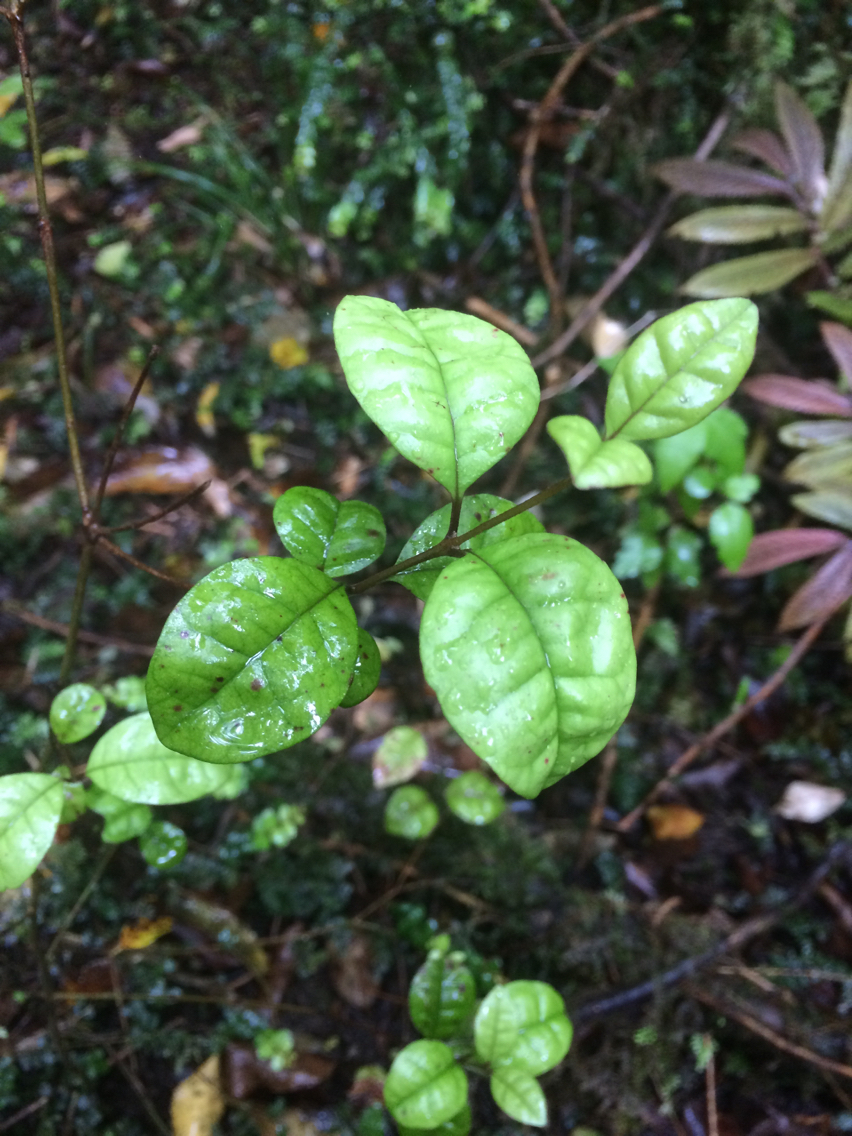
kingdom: Plantae
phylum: Tracheophyta
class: Magnoliopsida
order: Myrtales
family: Myrtaceae
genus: Lophomyrtus
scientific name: Lophomyrtus bullata
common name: Rama rama
